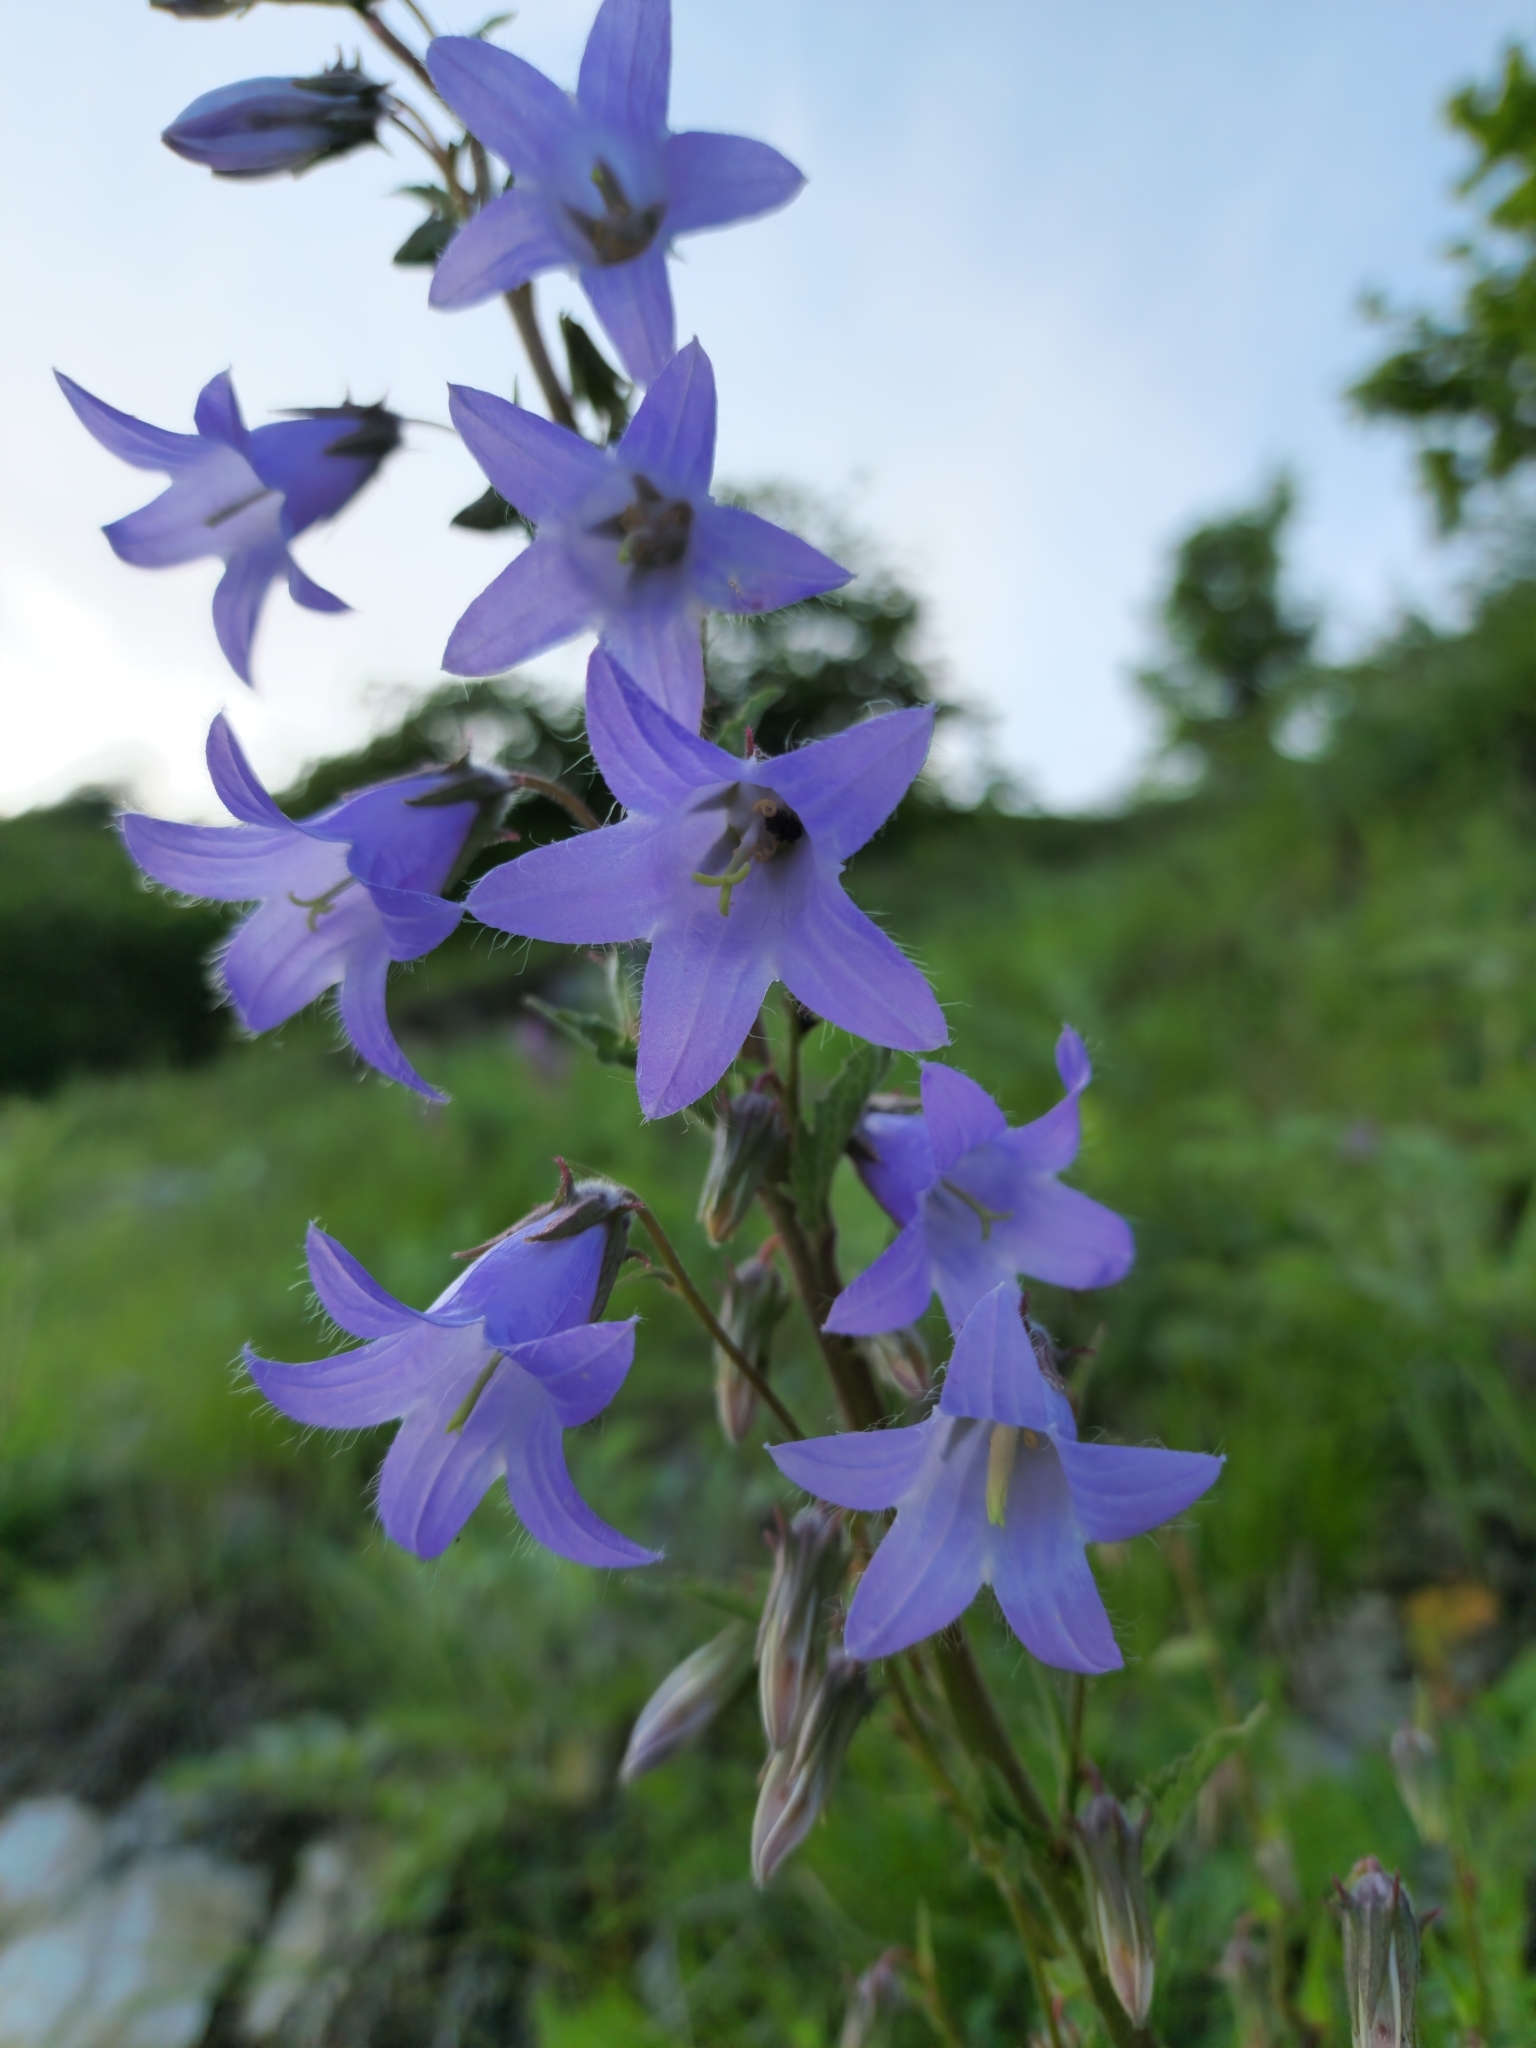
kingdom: Plantae
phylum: Tracheophyta
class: Magnoliopsida
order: Asterales
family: Campanulaceae
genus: Campanula
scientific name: Campanula sarmatica
